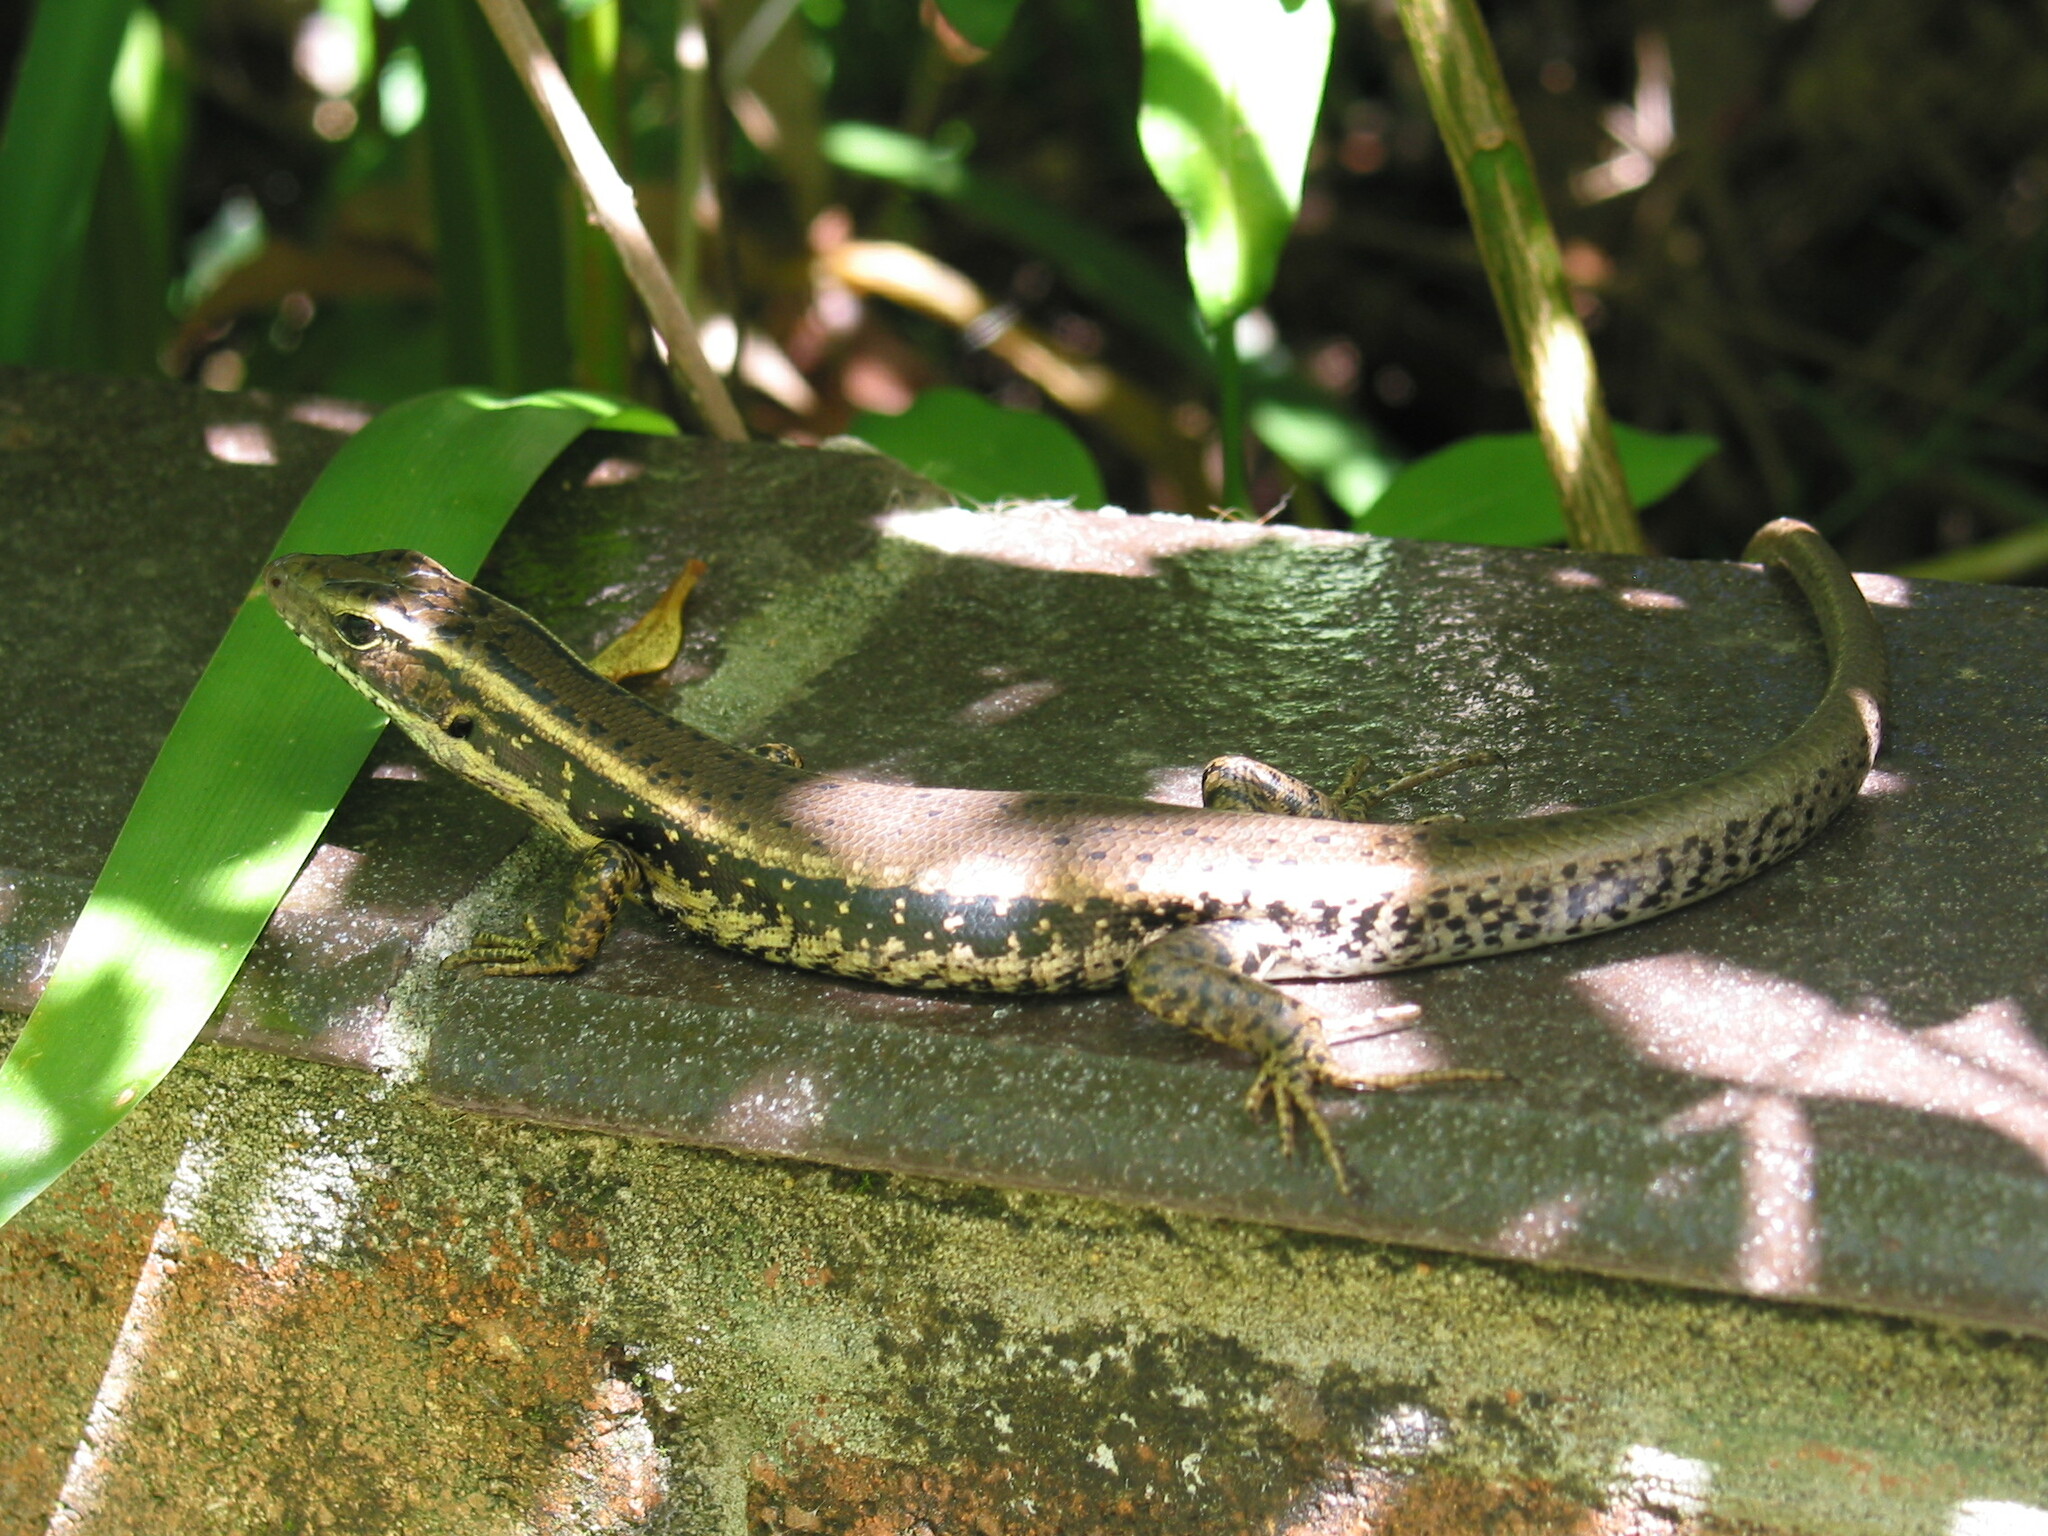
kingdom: Animalia
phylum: Chordata
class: Squamata
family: Scincidae
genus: Eulamprus
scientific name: Eulamprus quoyii
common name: Eastern water skink
